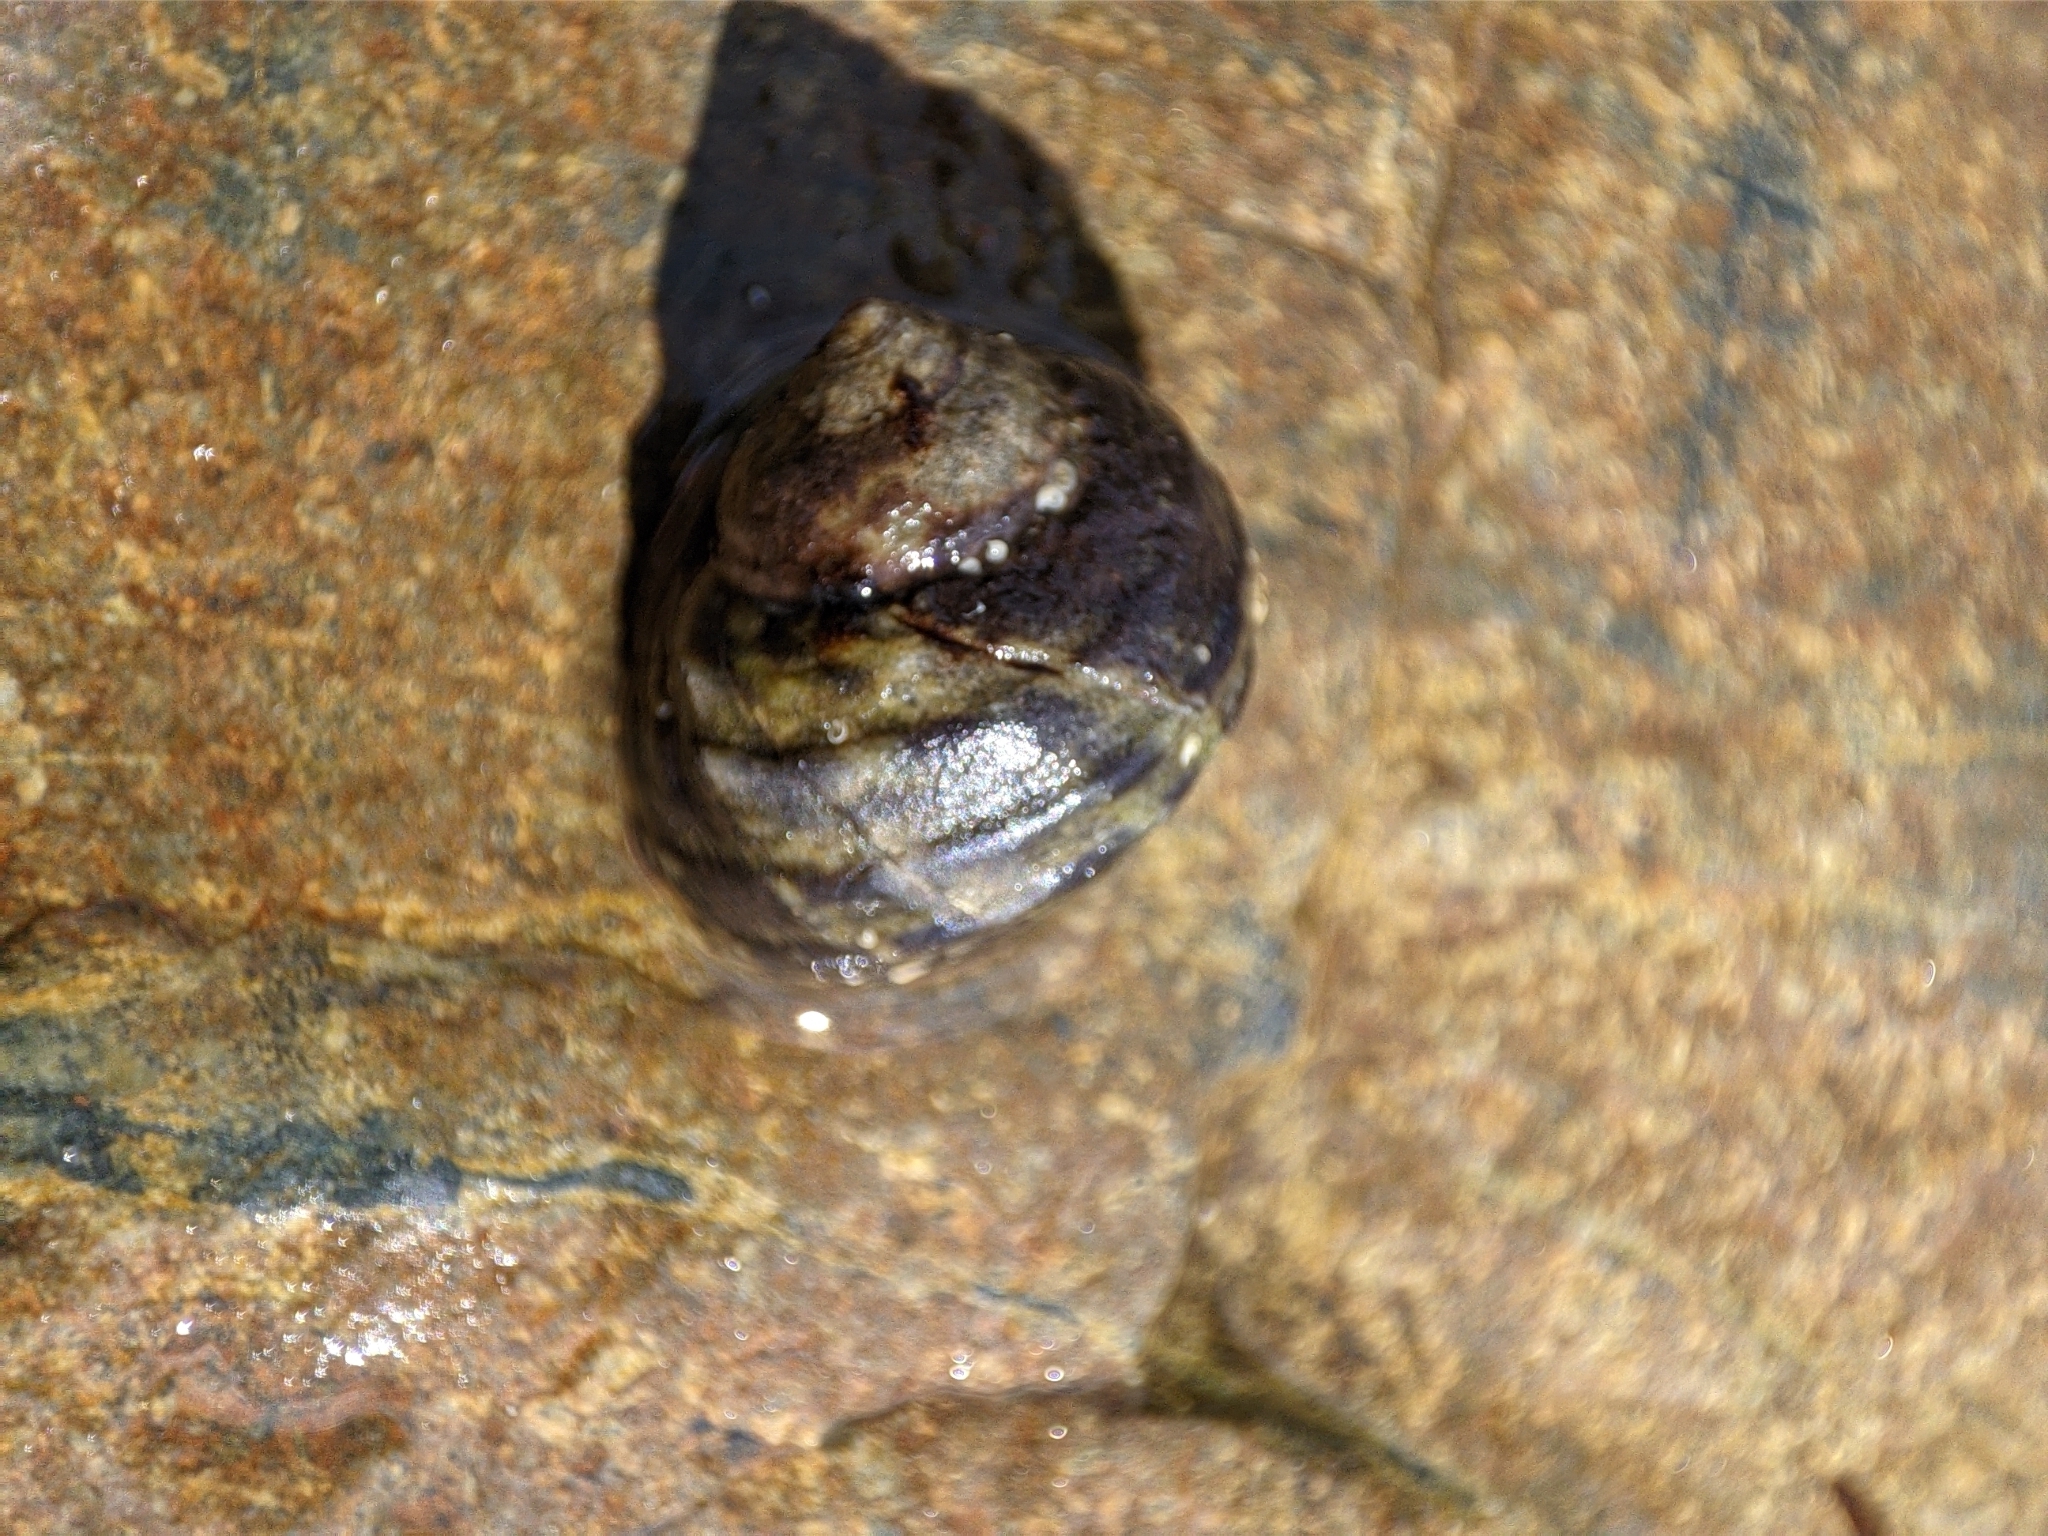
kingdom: Animalia
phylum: Mollusca
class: Gastropoda
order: Littorinimorpha
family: Littorinidae
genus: Littorina
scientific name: Littorina brevicula
